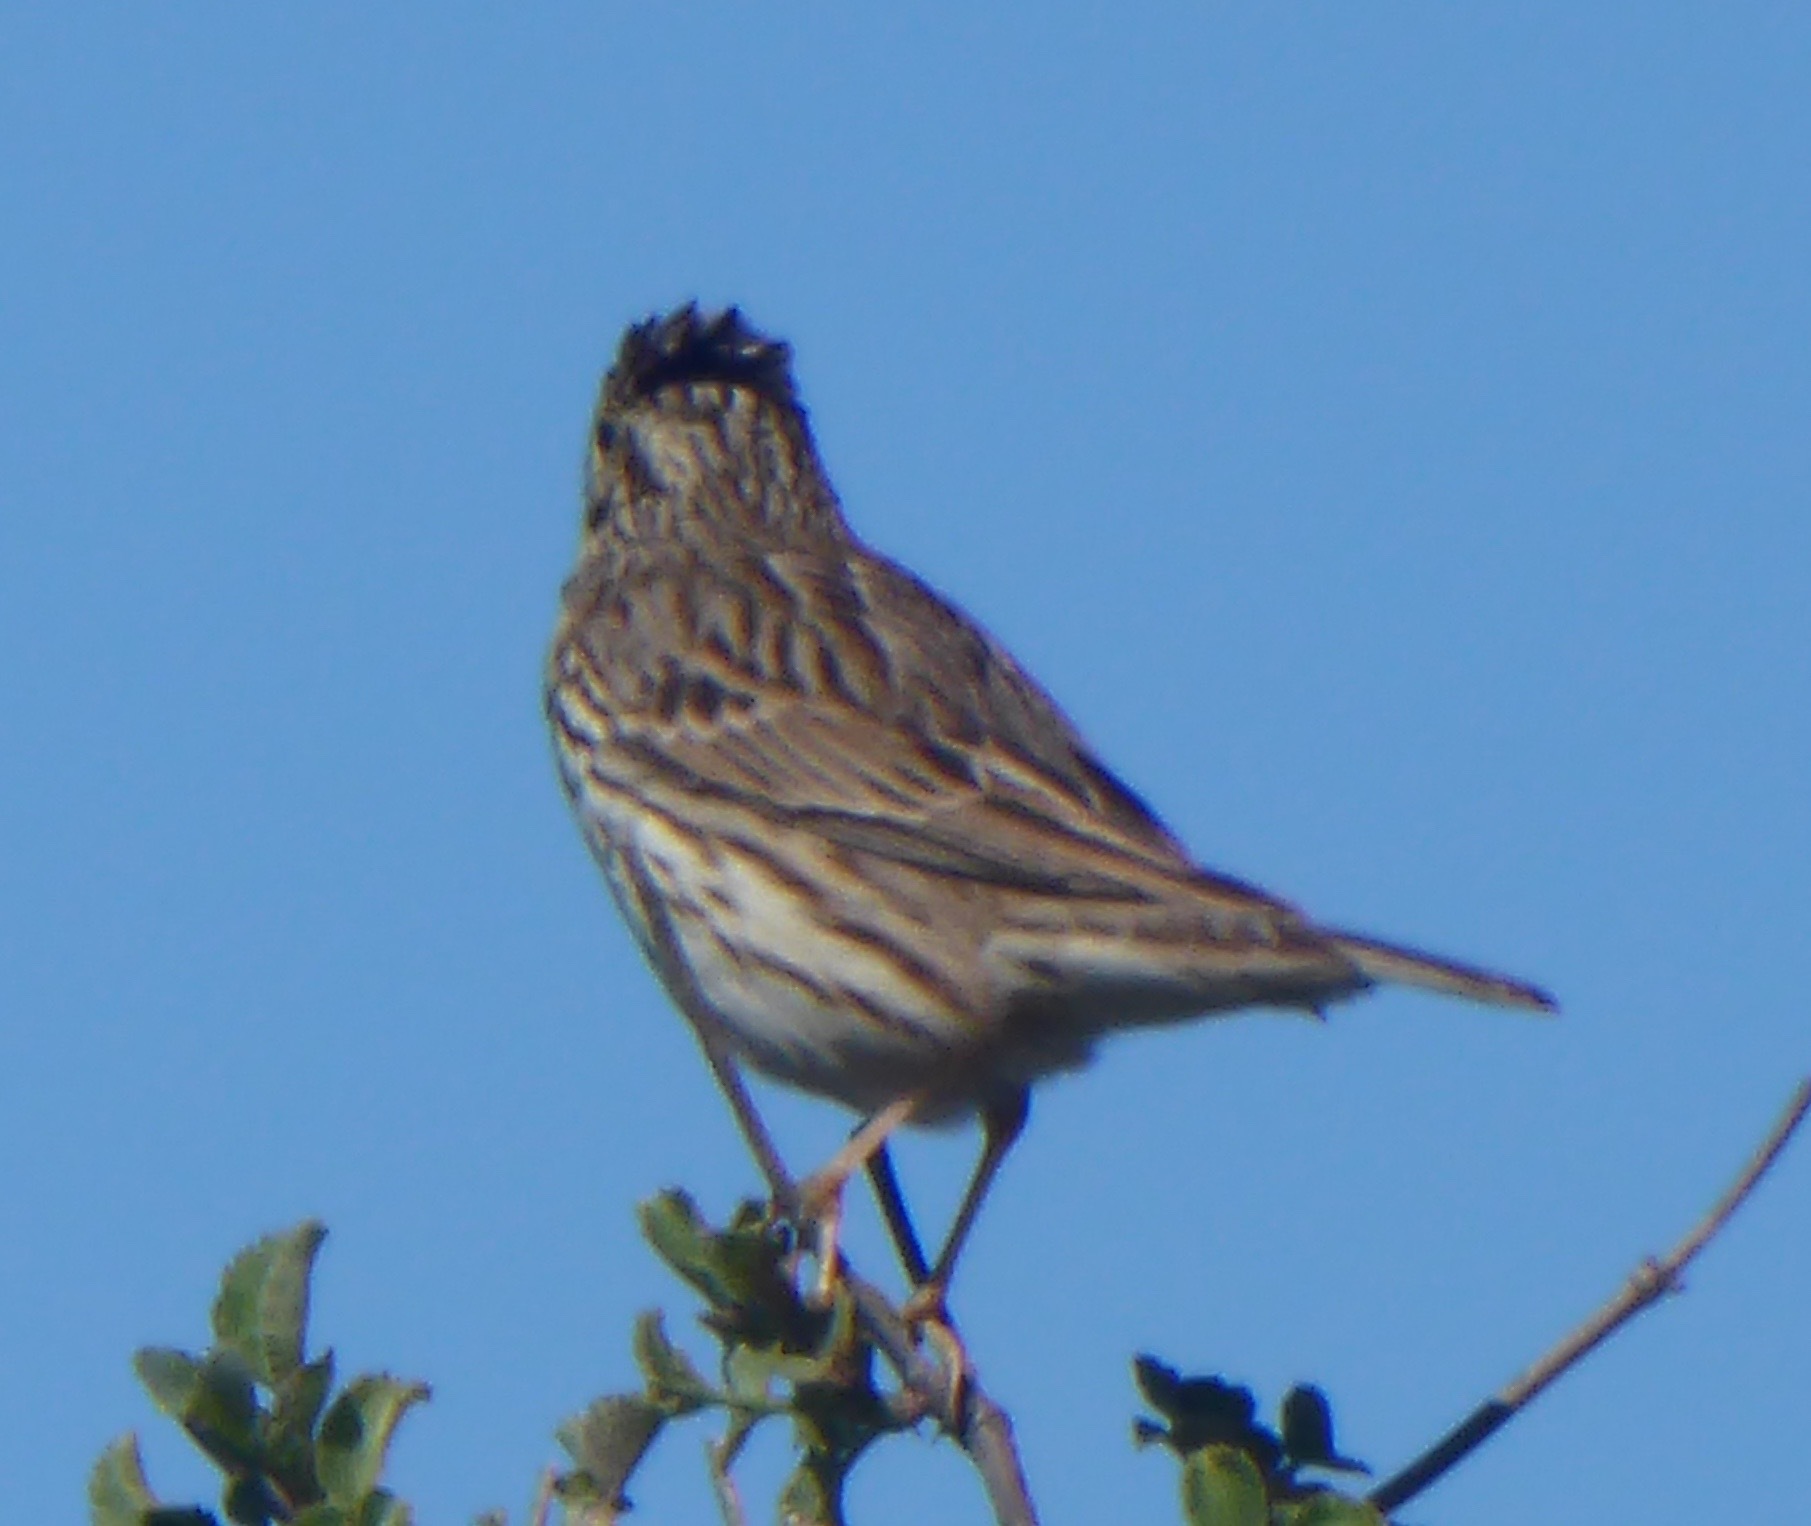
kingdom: Animalia
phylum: Chordata
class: Aves
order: Passeriformes
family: Passerellidae
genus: Passerculus
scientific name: Passerculus sandwichensis
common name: Savannah sparrow
